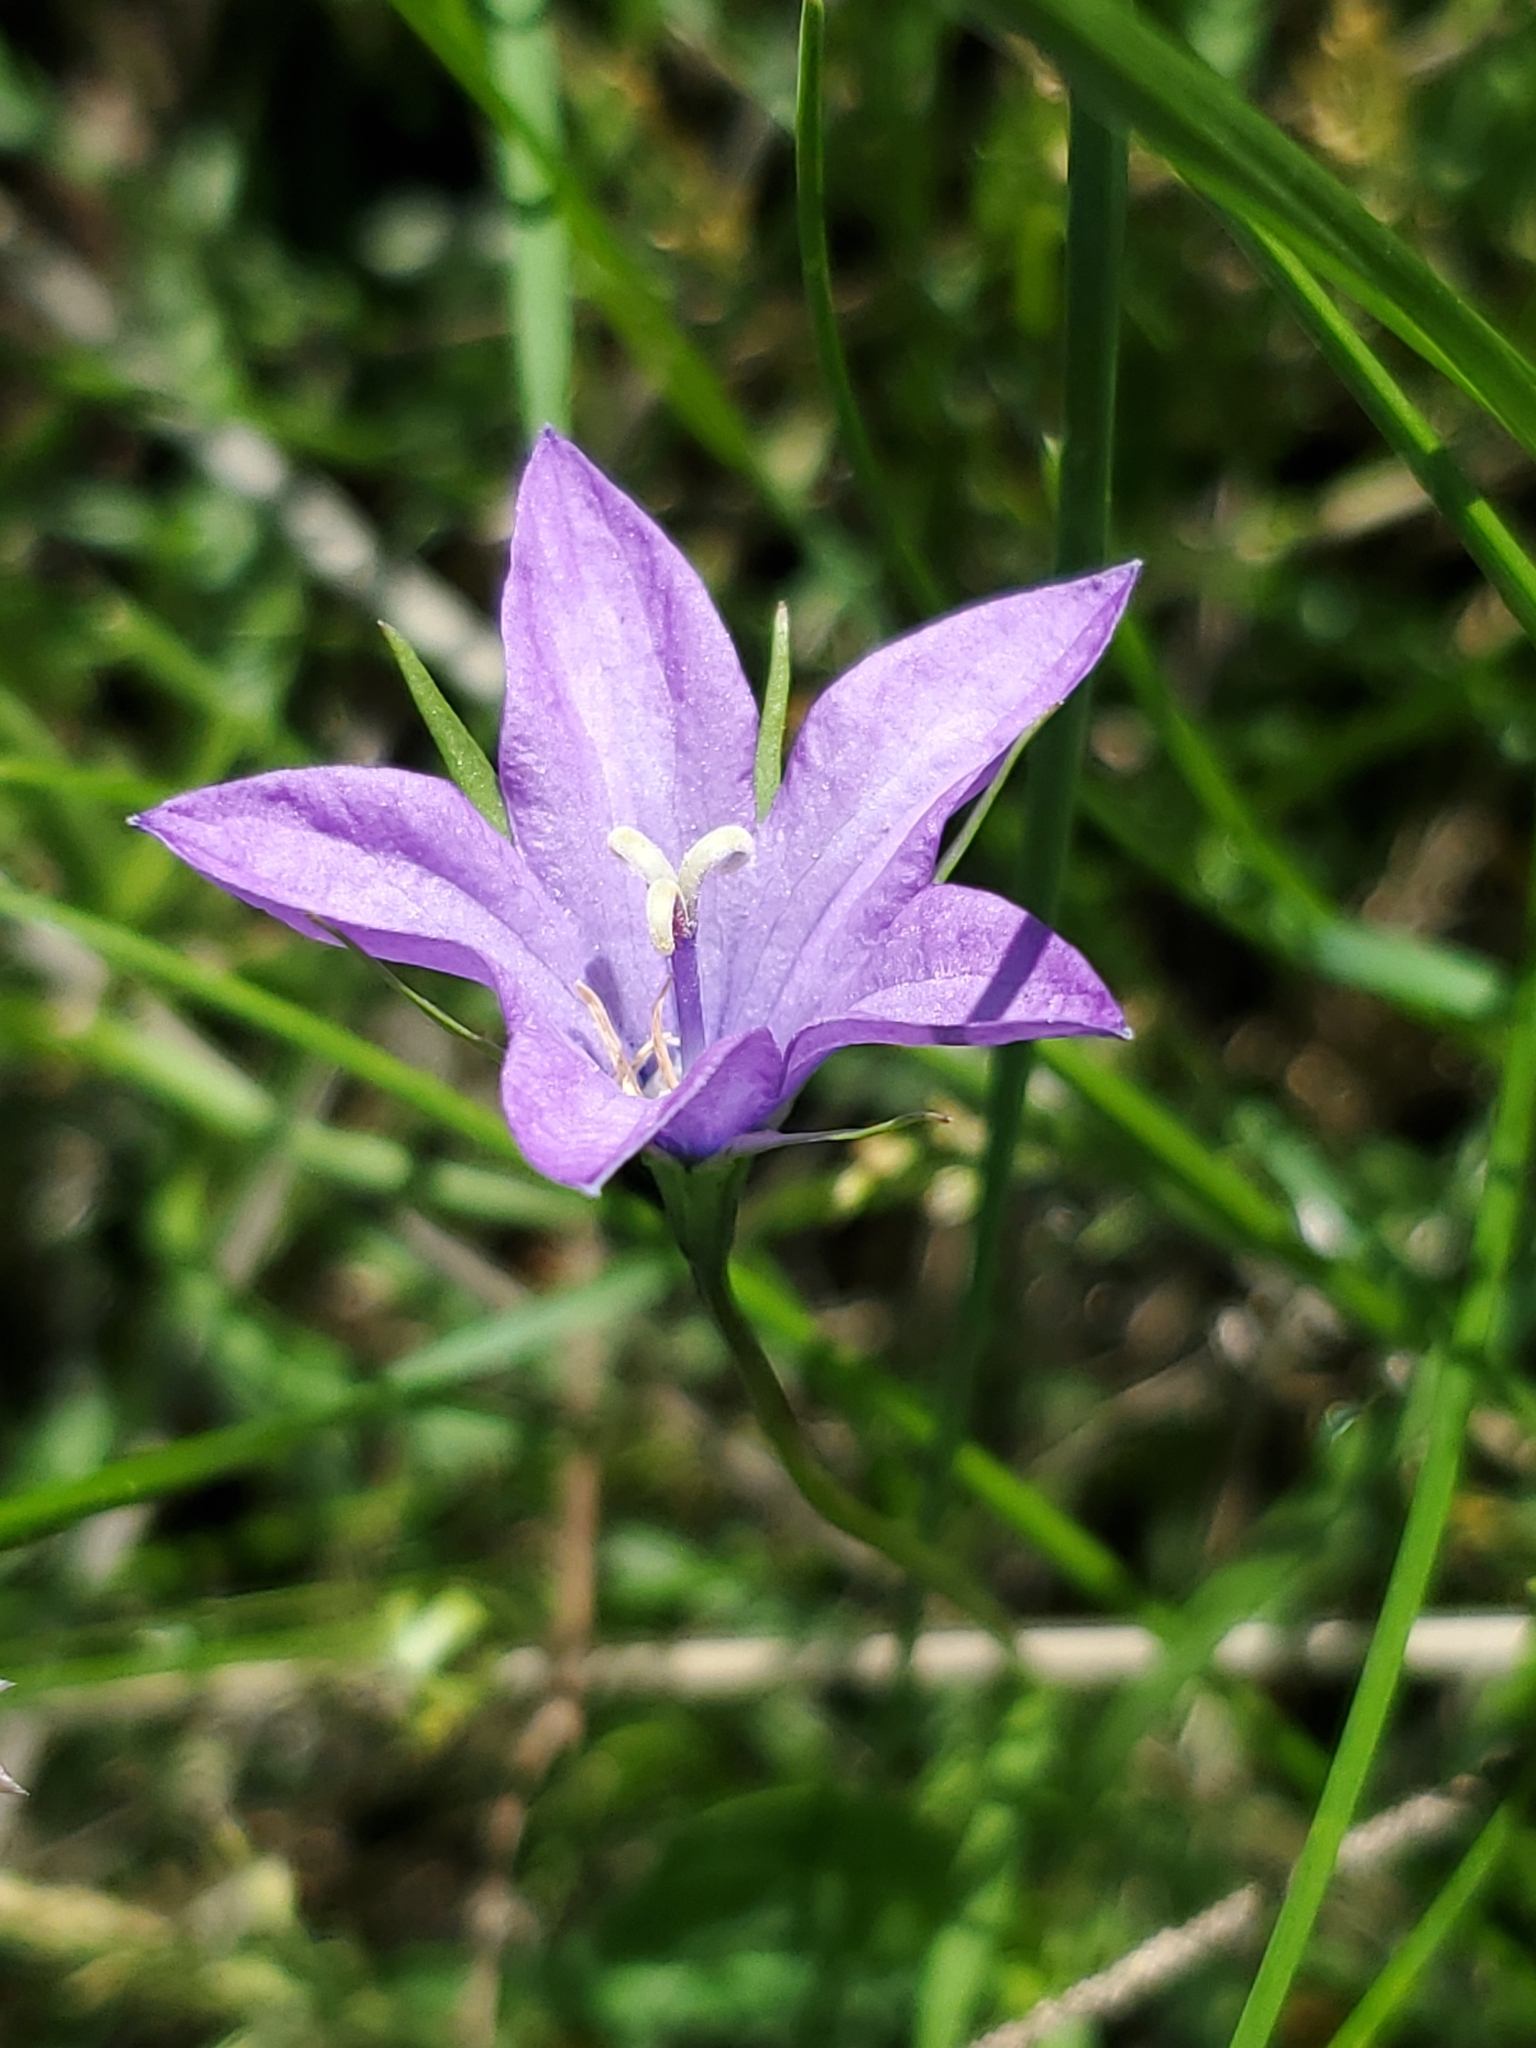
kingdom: Plantae
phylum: Tracheophyta
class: Magnoliopsida
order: Asterales
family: Campanulaceae
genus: Campanula
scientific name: Campanula parryi
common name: Rocky mountain bellflower
